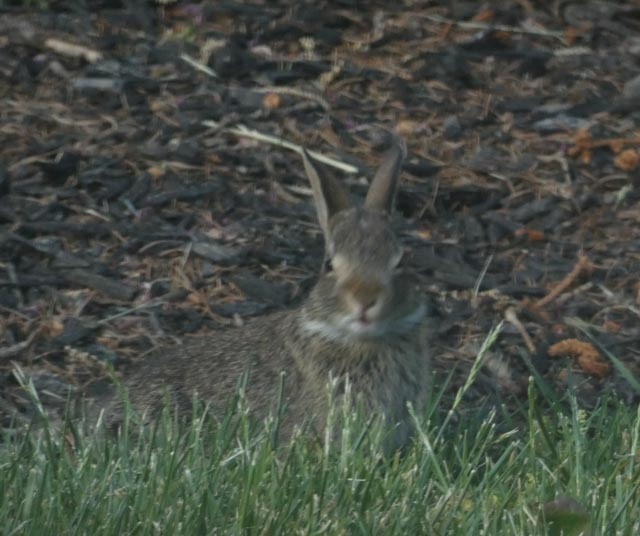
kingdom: Animalia
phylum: Chordata
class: Mammalia
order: Lagomorpha
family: Leporidae
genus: Sylvilagus
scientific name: Sylvilagus floridanus
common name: Eastern cottontail
